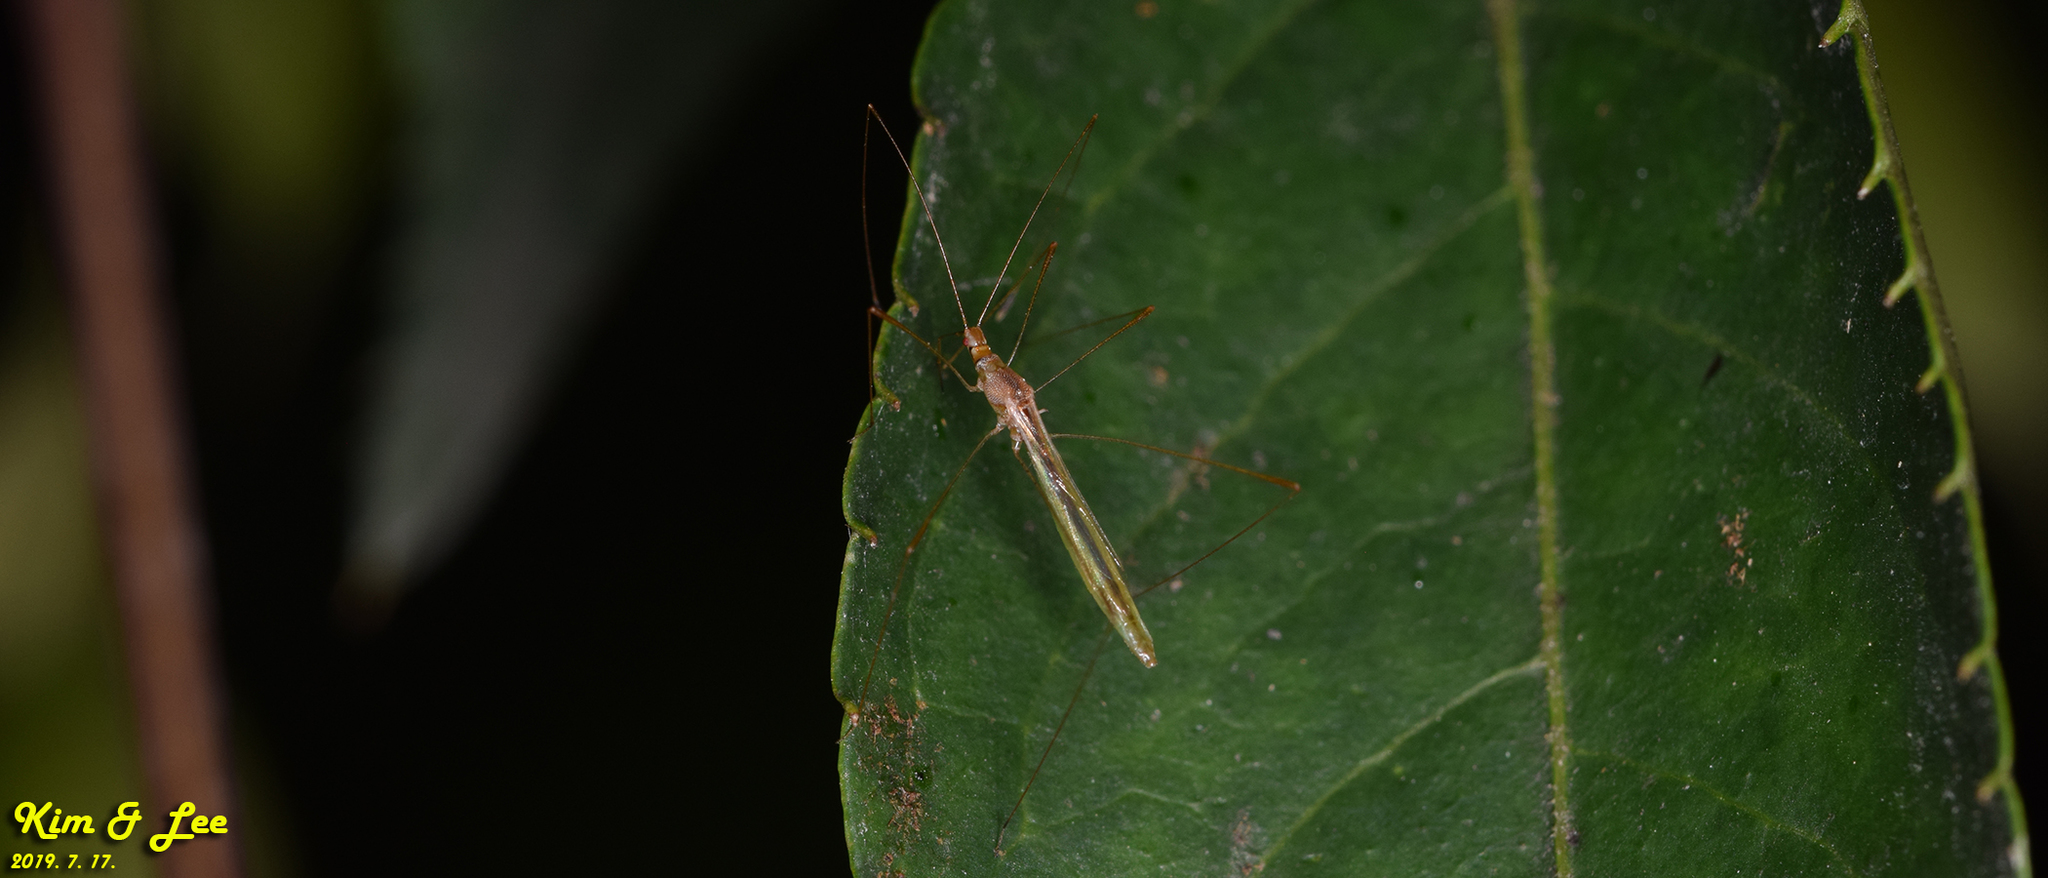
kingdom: Animalia
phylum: Arthropoda
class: Insecta
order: Hemiptera
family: Berytidae
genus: Yemma
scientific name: Yemma exilis
